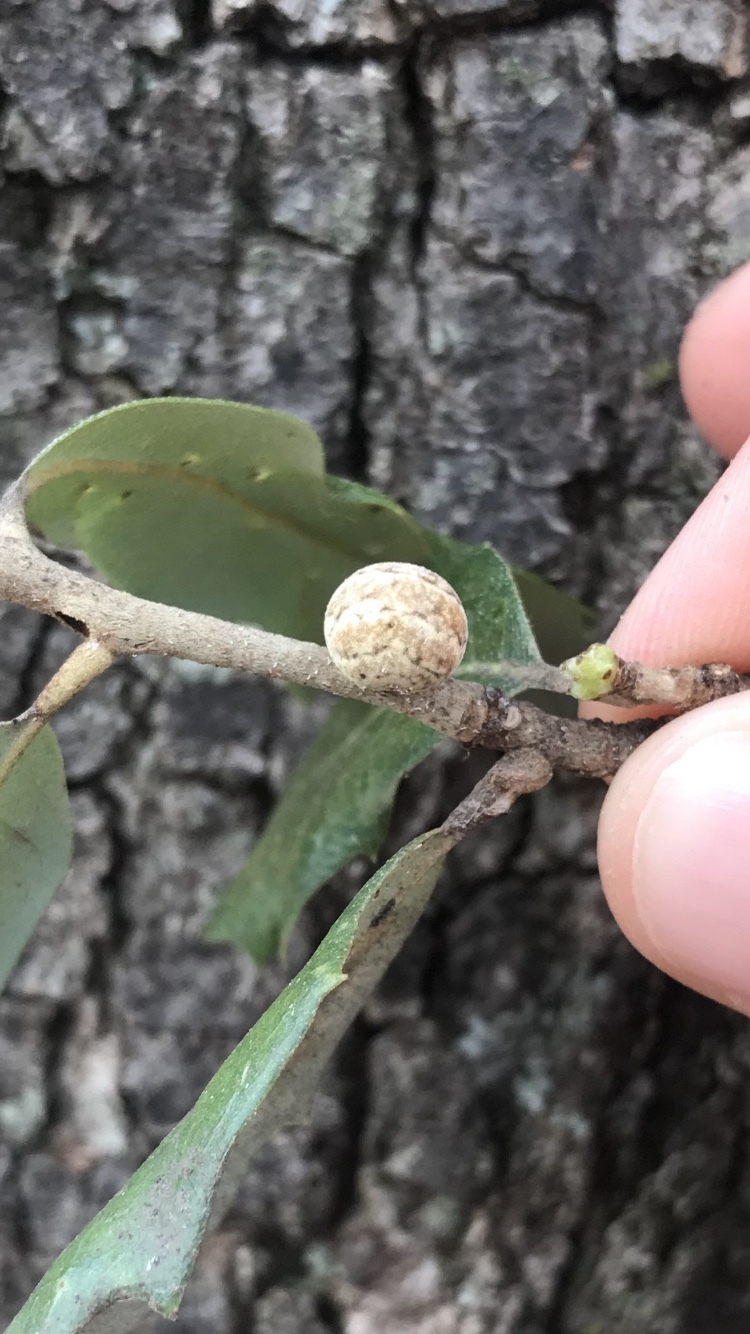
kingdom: Animalia
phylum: Arthropoda
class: Insecta
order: Hemiptera
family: Kermesidae
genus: Allokermes
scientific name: Allokermes cueroensis
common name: Live oak kermes
